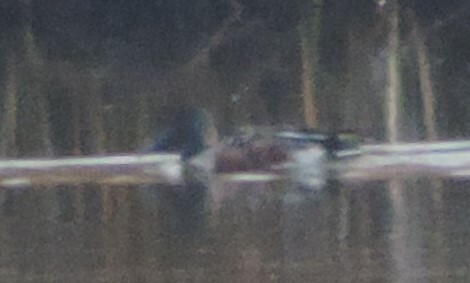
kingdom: Animalia
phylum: Chordata
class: Aves
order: Anseriformes
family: Anatidae
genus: Spatula
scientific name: Spatula clypeata
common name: Northern shoveler
